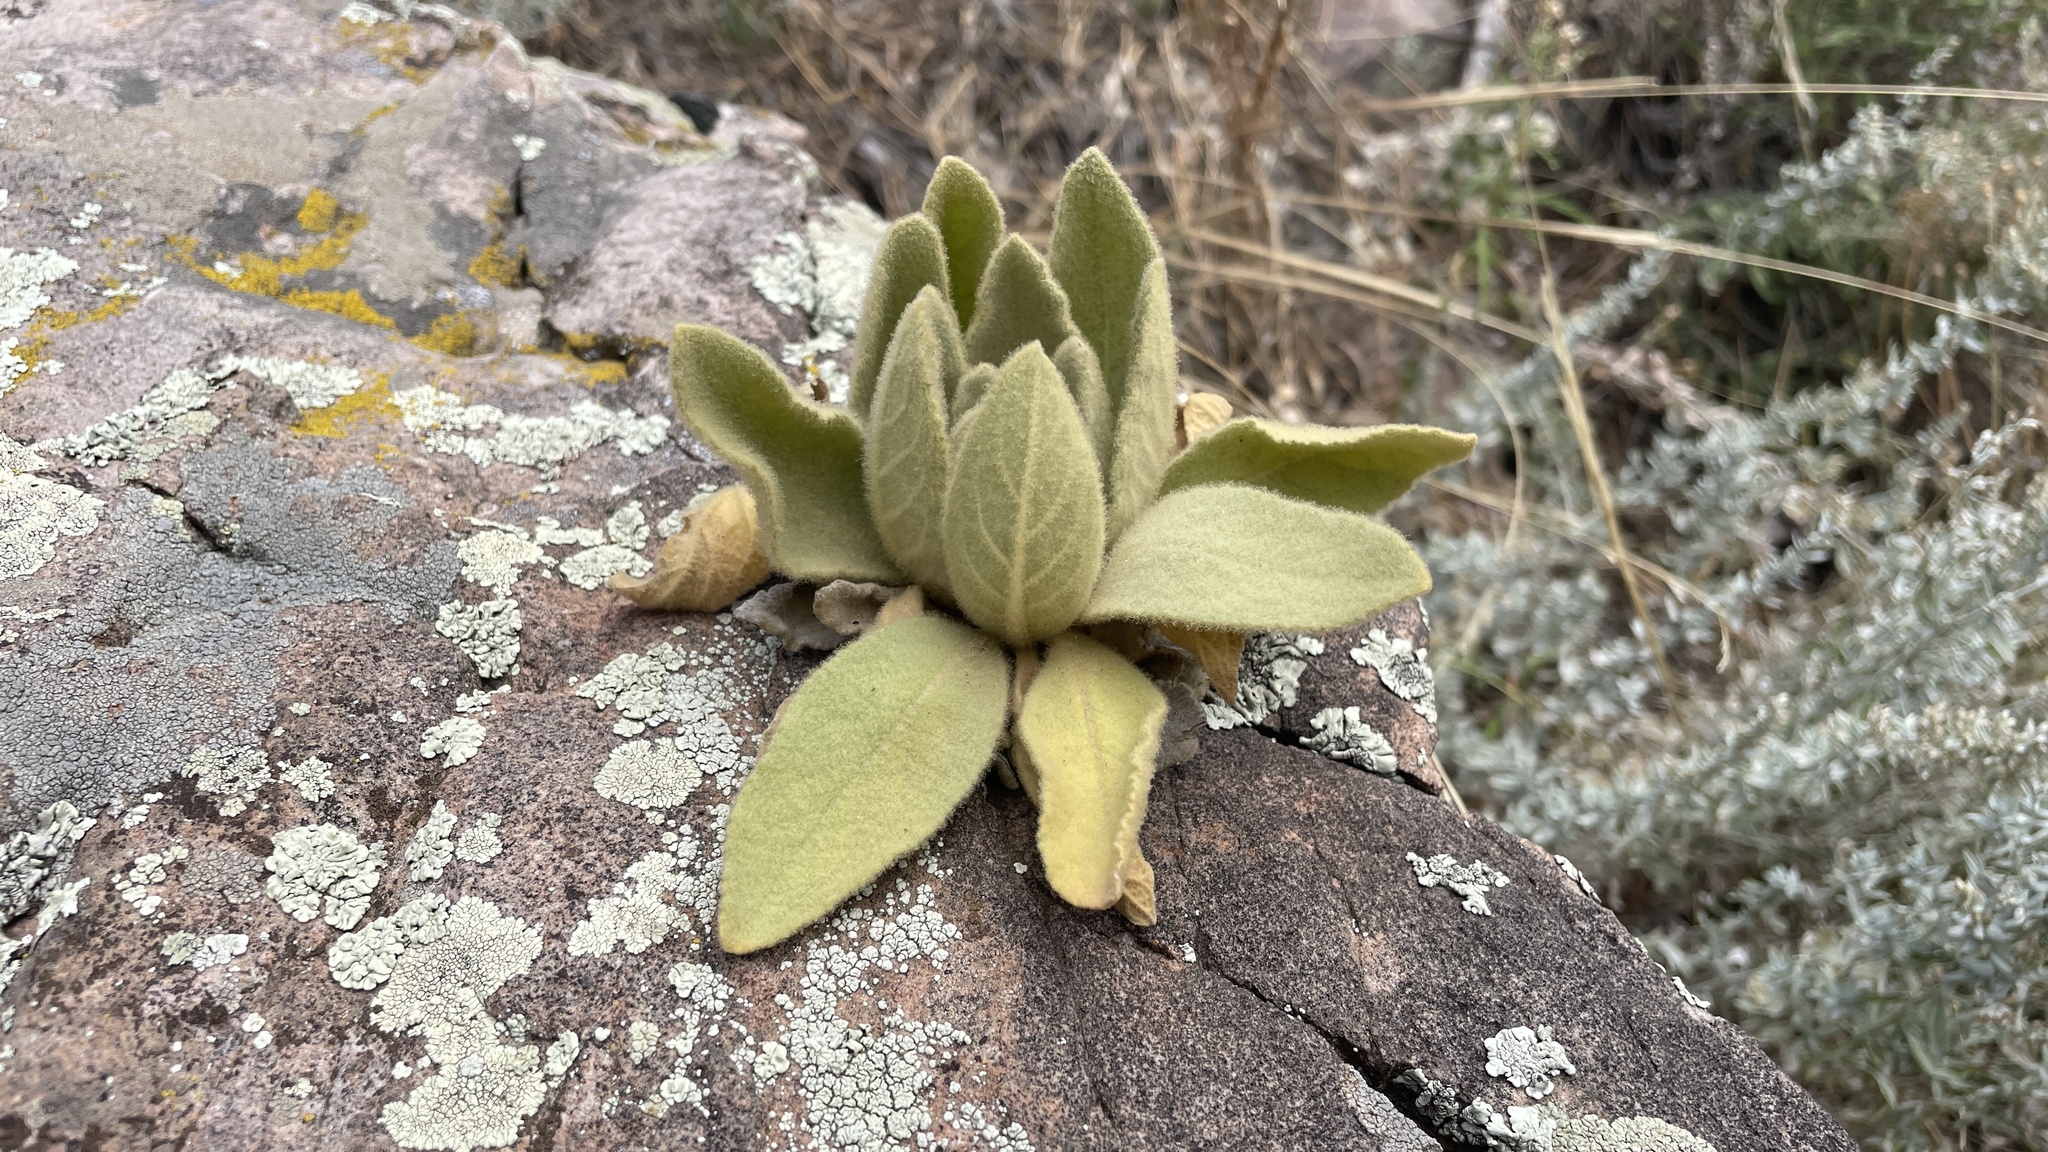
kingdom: Plantae
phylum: Tracheophyta
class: Magnoliopsida
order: Lamiales
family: Scrophulariaceae
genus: Verbascum
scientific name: Verbascum thapsus
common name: Common mullein
